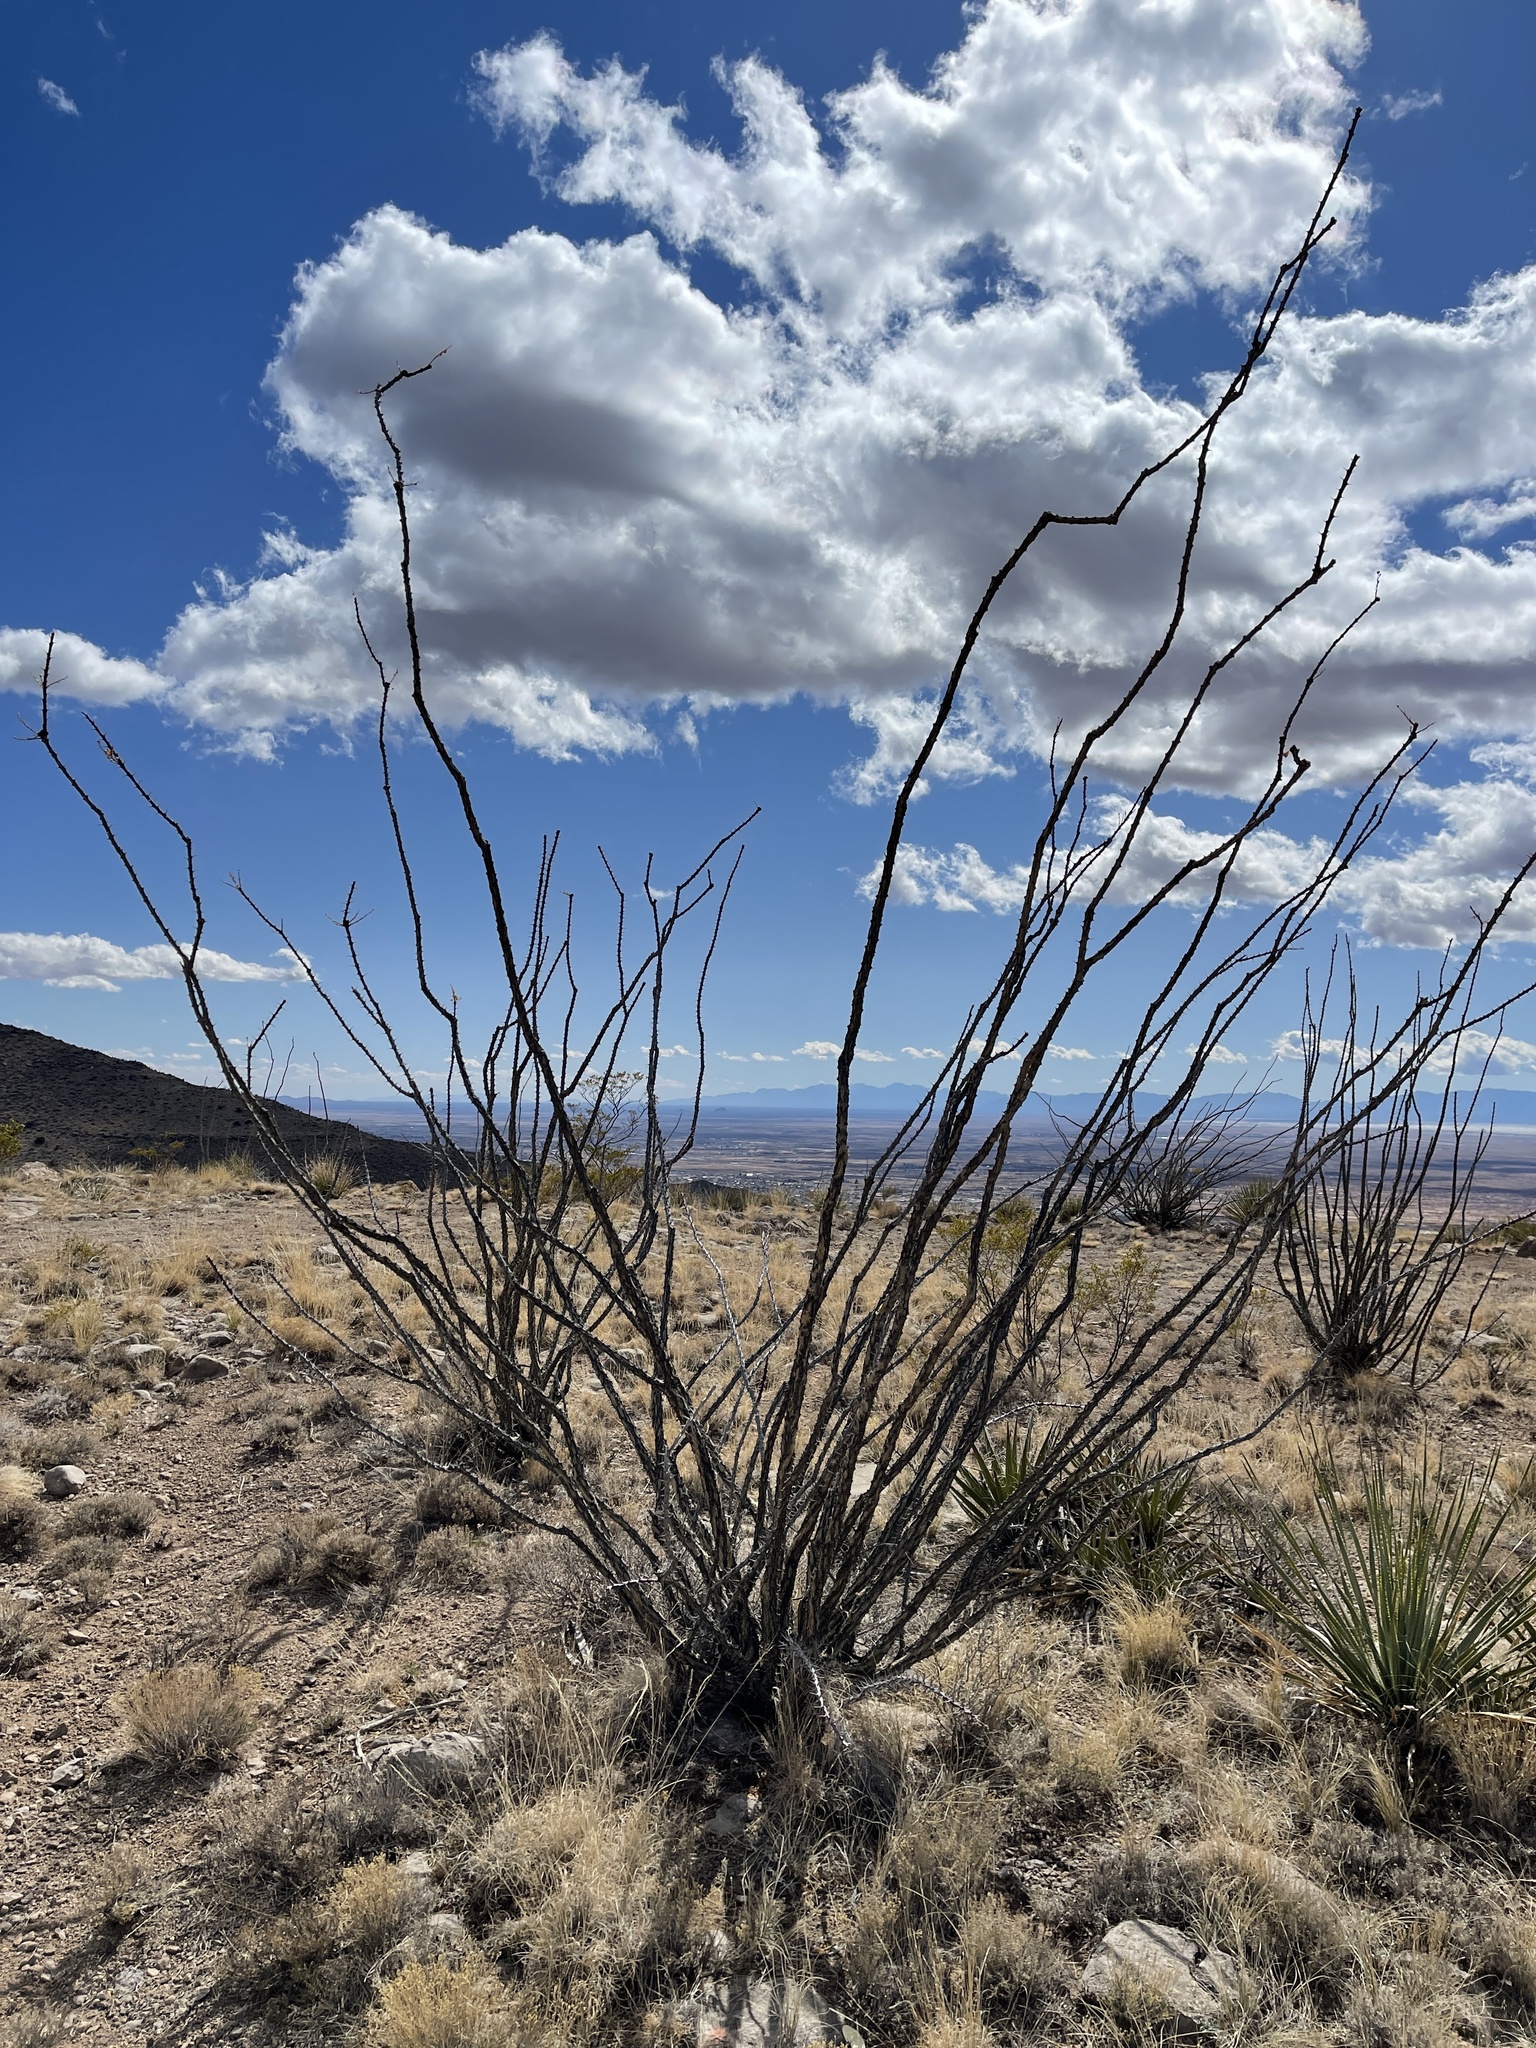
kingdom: Plantae
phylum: Tracheophyta
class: Magnoliopsida
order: Ericales
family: Fouquieriaceae
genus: Fouquieria
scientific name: Fouquieria splendens
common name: Vine-cactus
